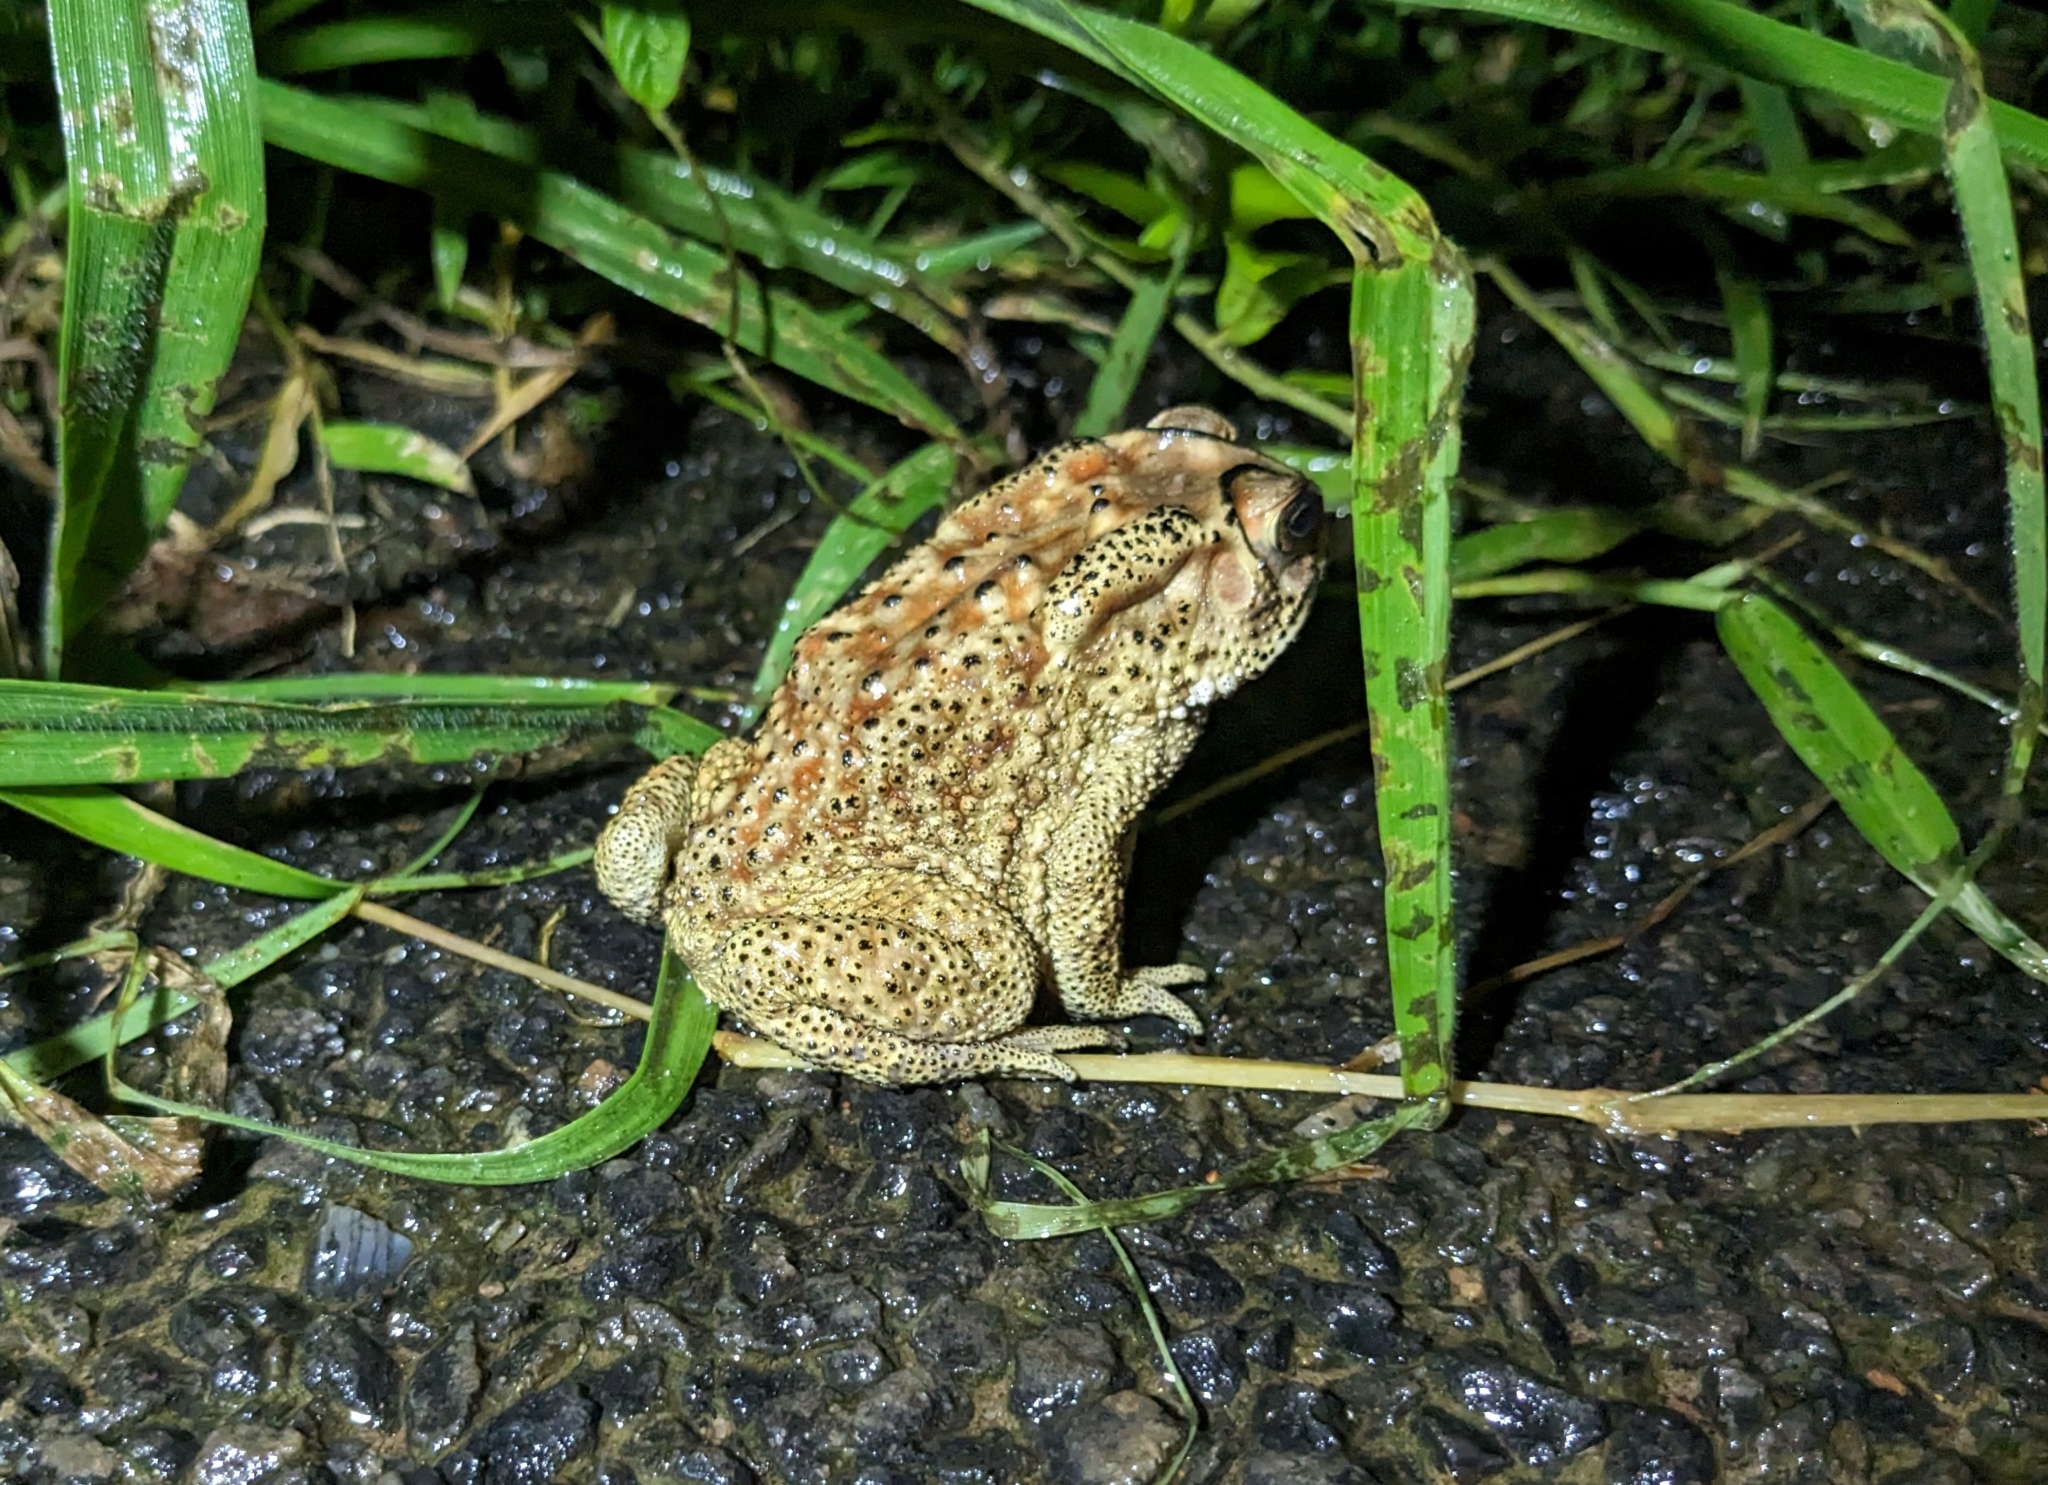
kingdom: Animalia
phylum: Chordata
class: Amphibia
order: Anura
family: Bufonidae
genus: Duttaphrynus
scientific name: Duttaphrynus melanostictus
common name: Common sunda toad
